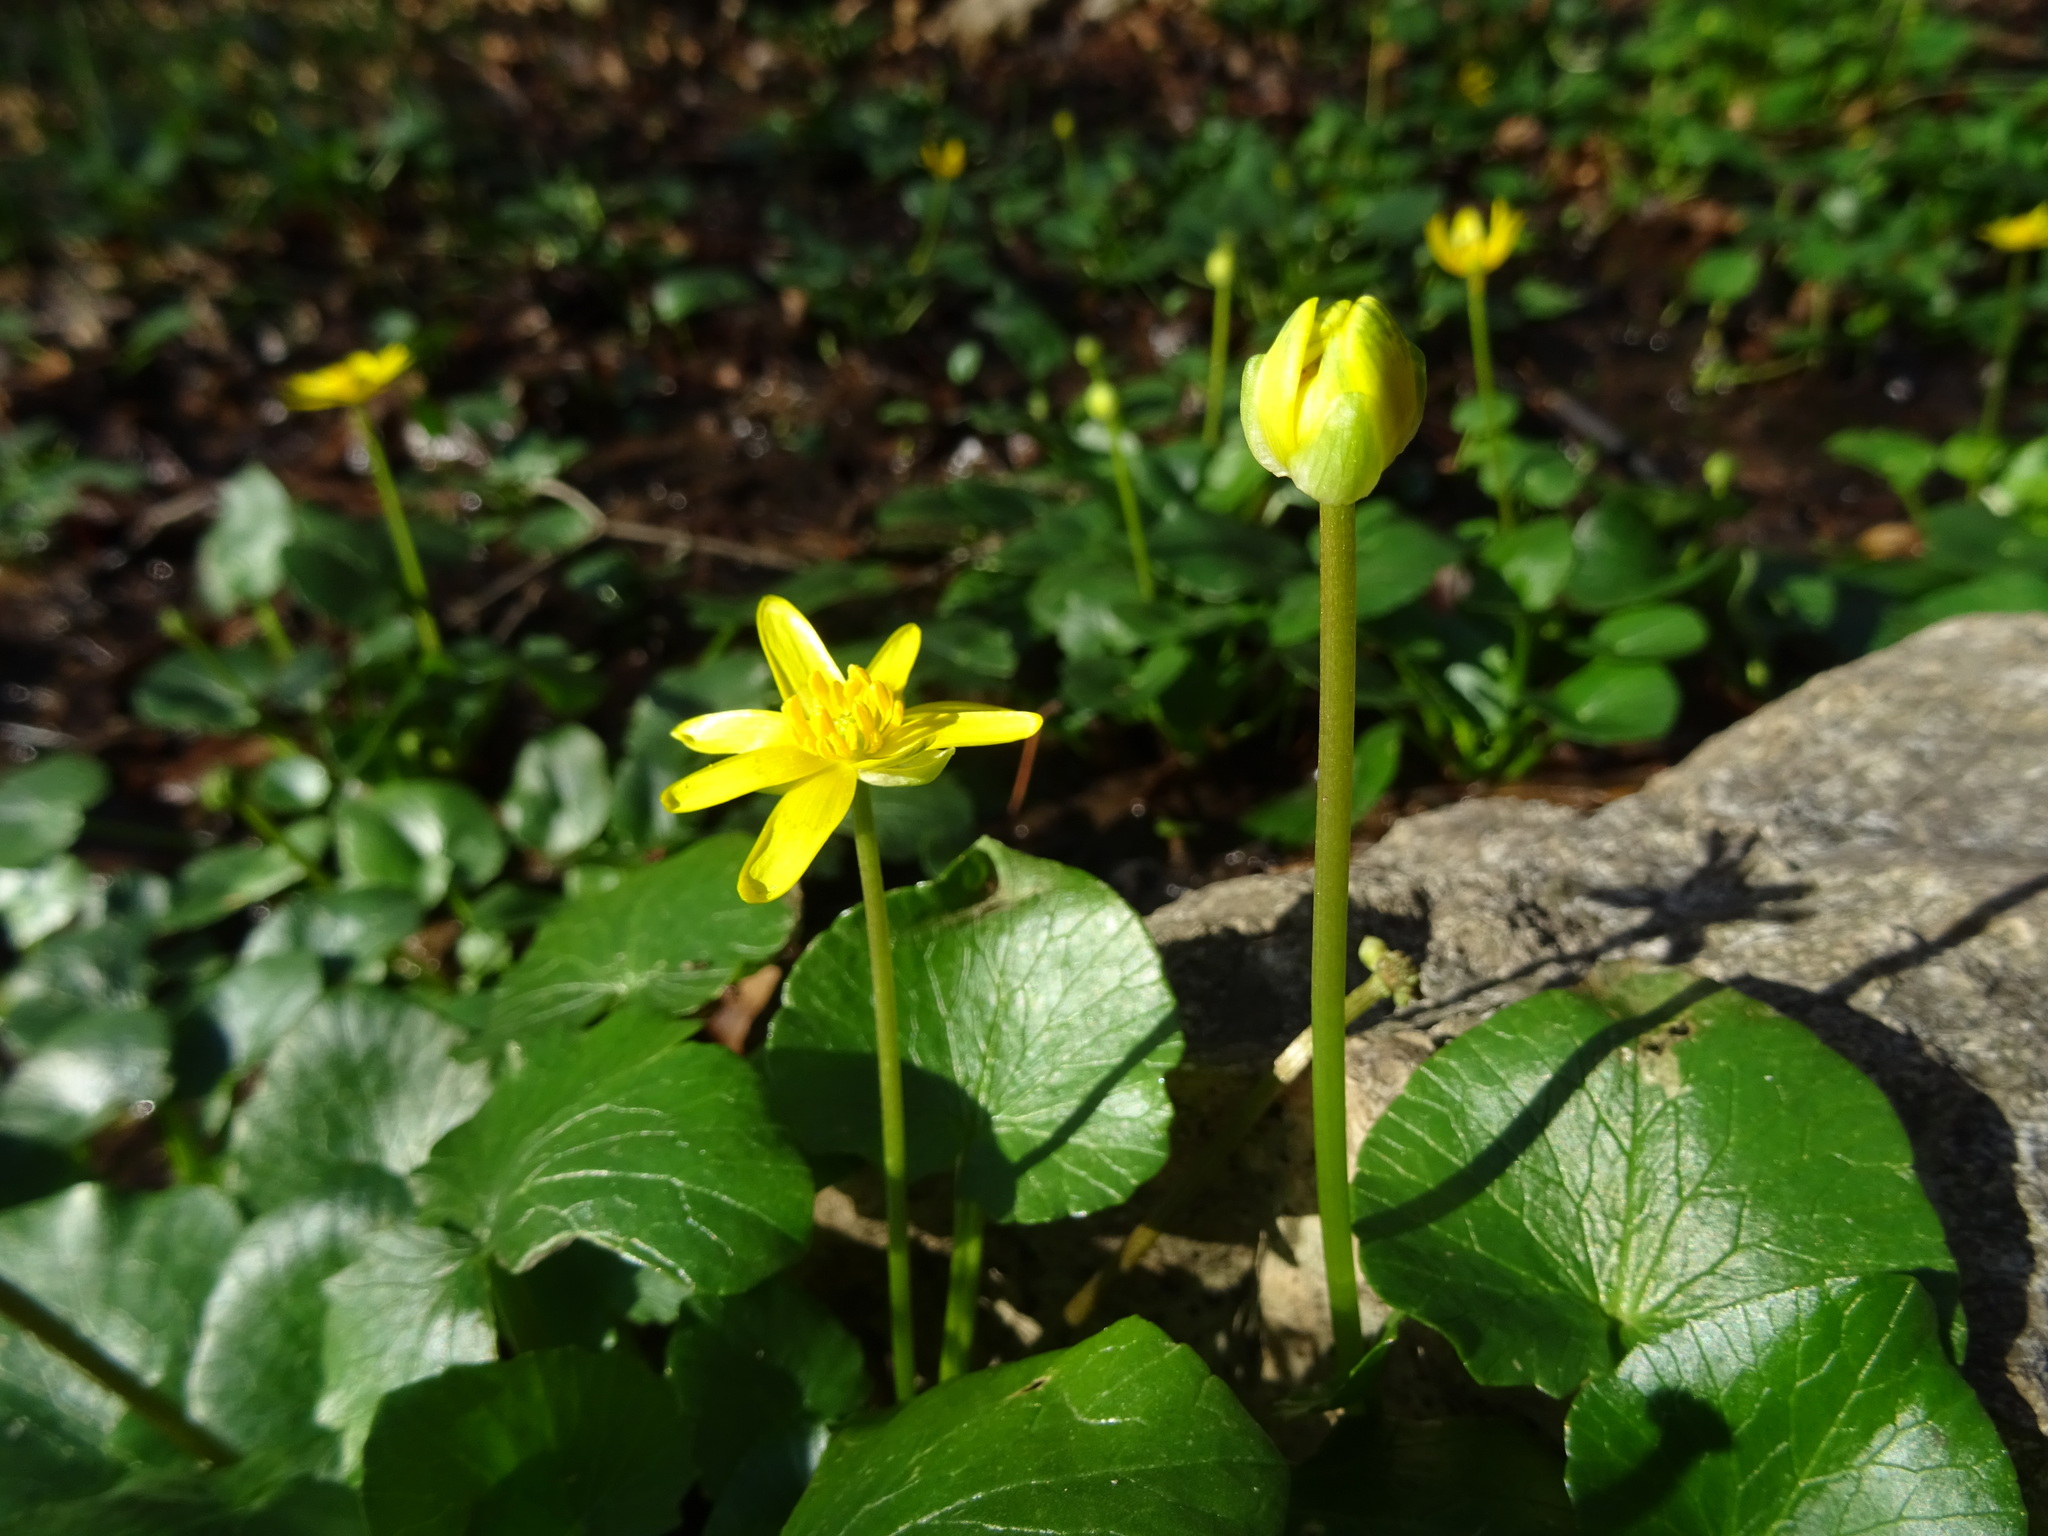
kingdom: Plantae
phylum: Tracheophyta
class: Magnoliopsida
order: Ranunculales
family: Ranunculaceae
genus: Ficaria
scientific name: Ficaria verna
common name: Lesser celandine
